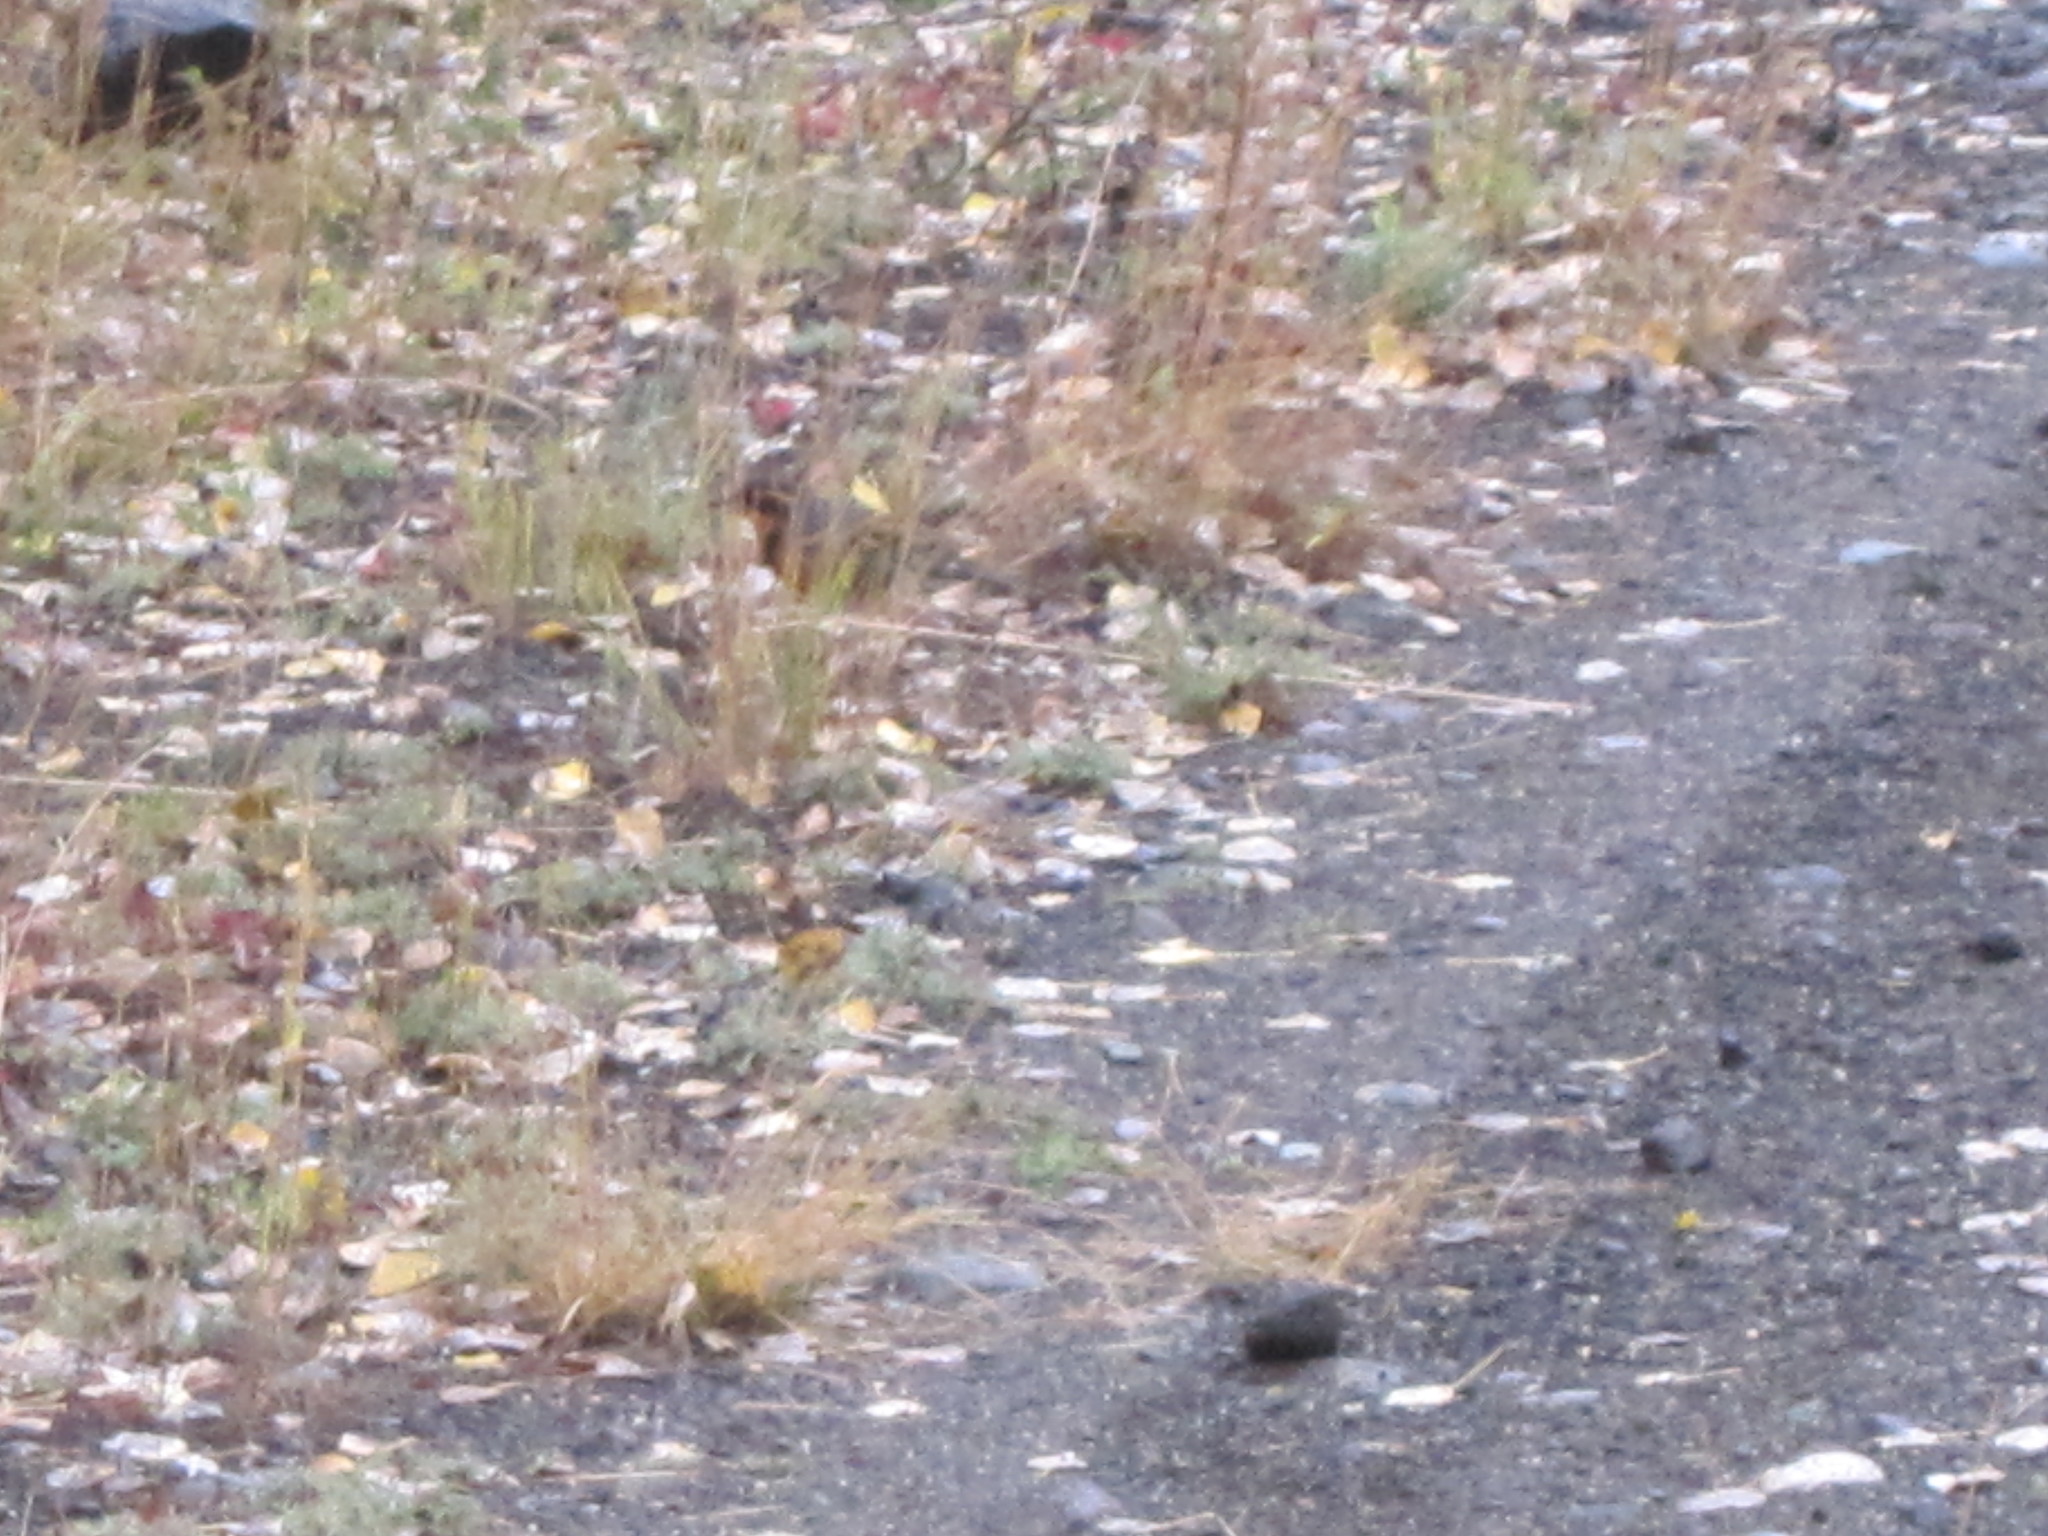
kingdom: Animalia
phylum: Chordata
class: Aves
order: Passeriformes
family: Turdidae
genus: Ixoreus
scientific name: Ixoreus naevius
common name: Varied thrush
